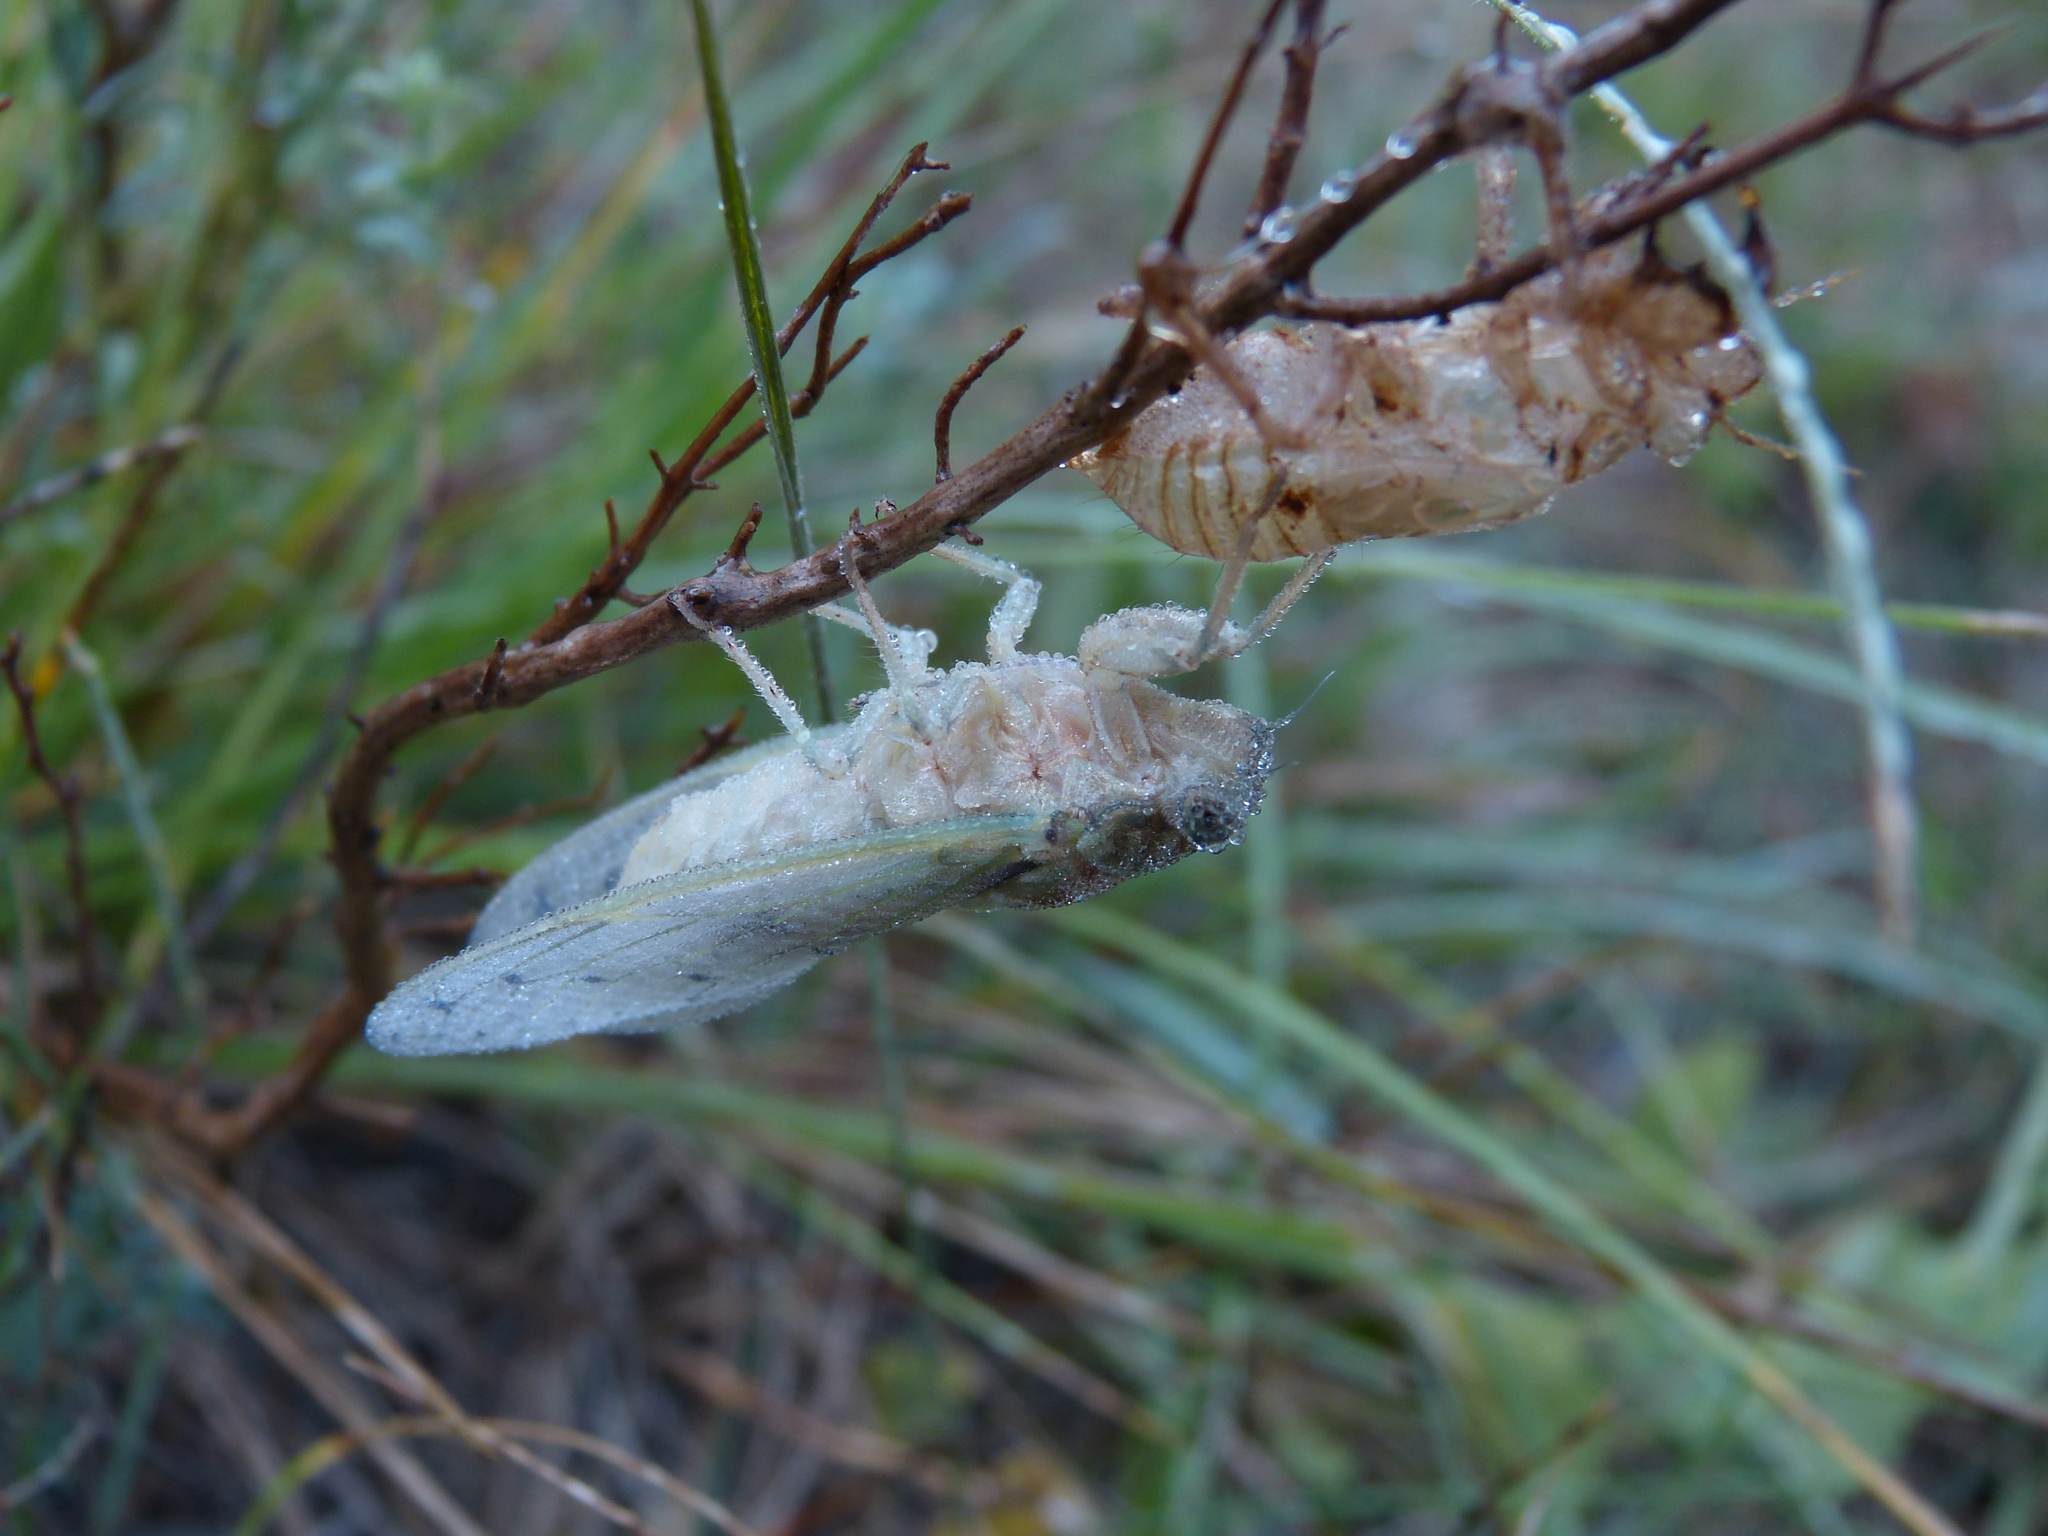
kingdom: Animalia
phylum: Arthropoda
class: Insecta
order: Hemiptera
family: Cicadidae
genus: Cicada
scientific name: Cicada orni
